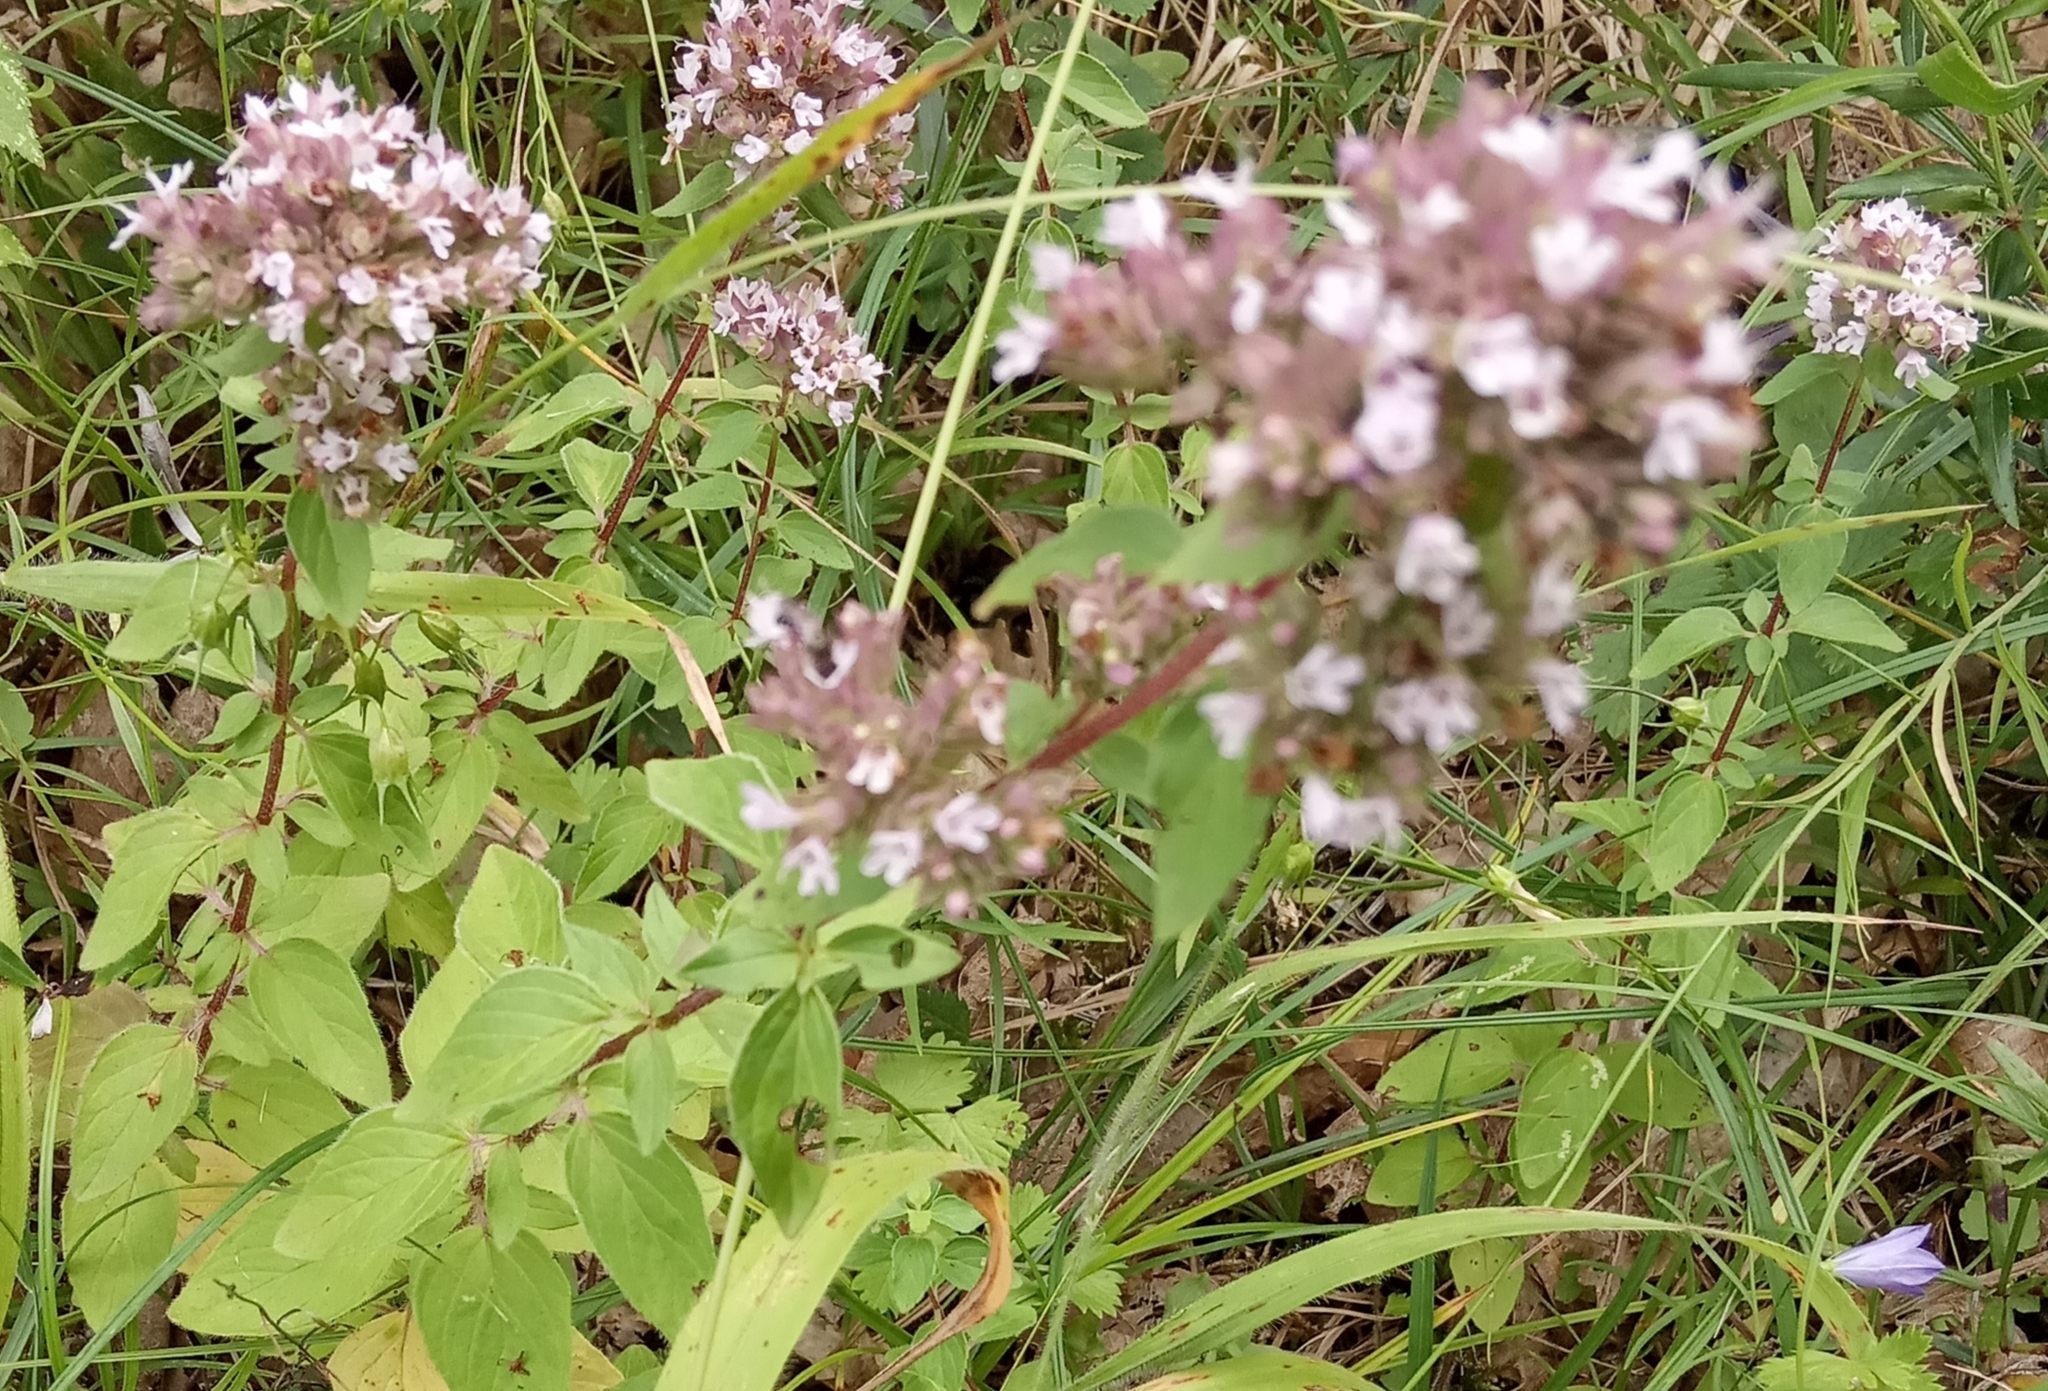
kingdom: Plantae
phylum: Tracheophyta
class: Magnoliopsida
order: Lamiales
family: Lamiaceae
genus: Origanum
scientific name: Origanum vulgare
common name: Wild marjoram
